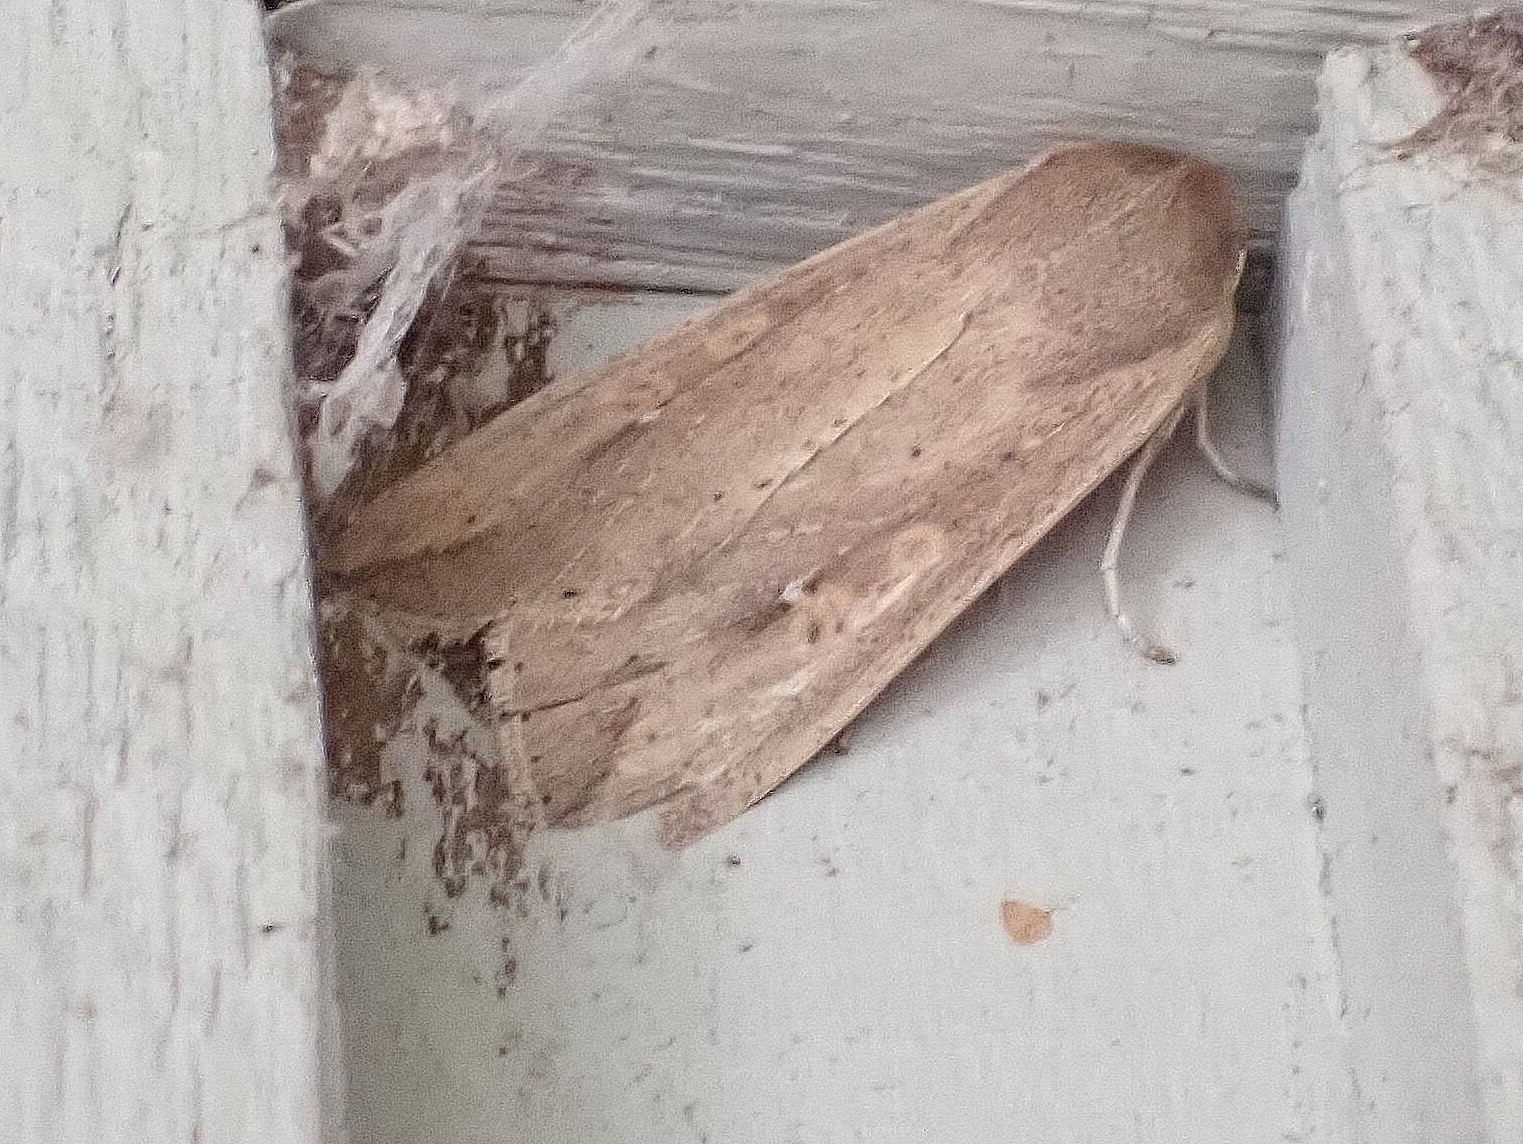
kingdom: Animalia
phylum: Arthropoda
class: Insecta
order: Lepidoptera
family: Noctuidae
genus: Mythimna
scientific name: Mythimna unipuncta
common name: White-speck
